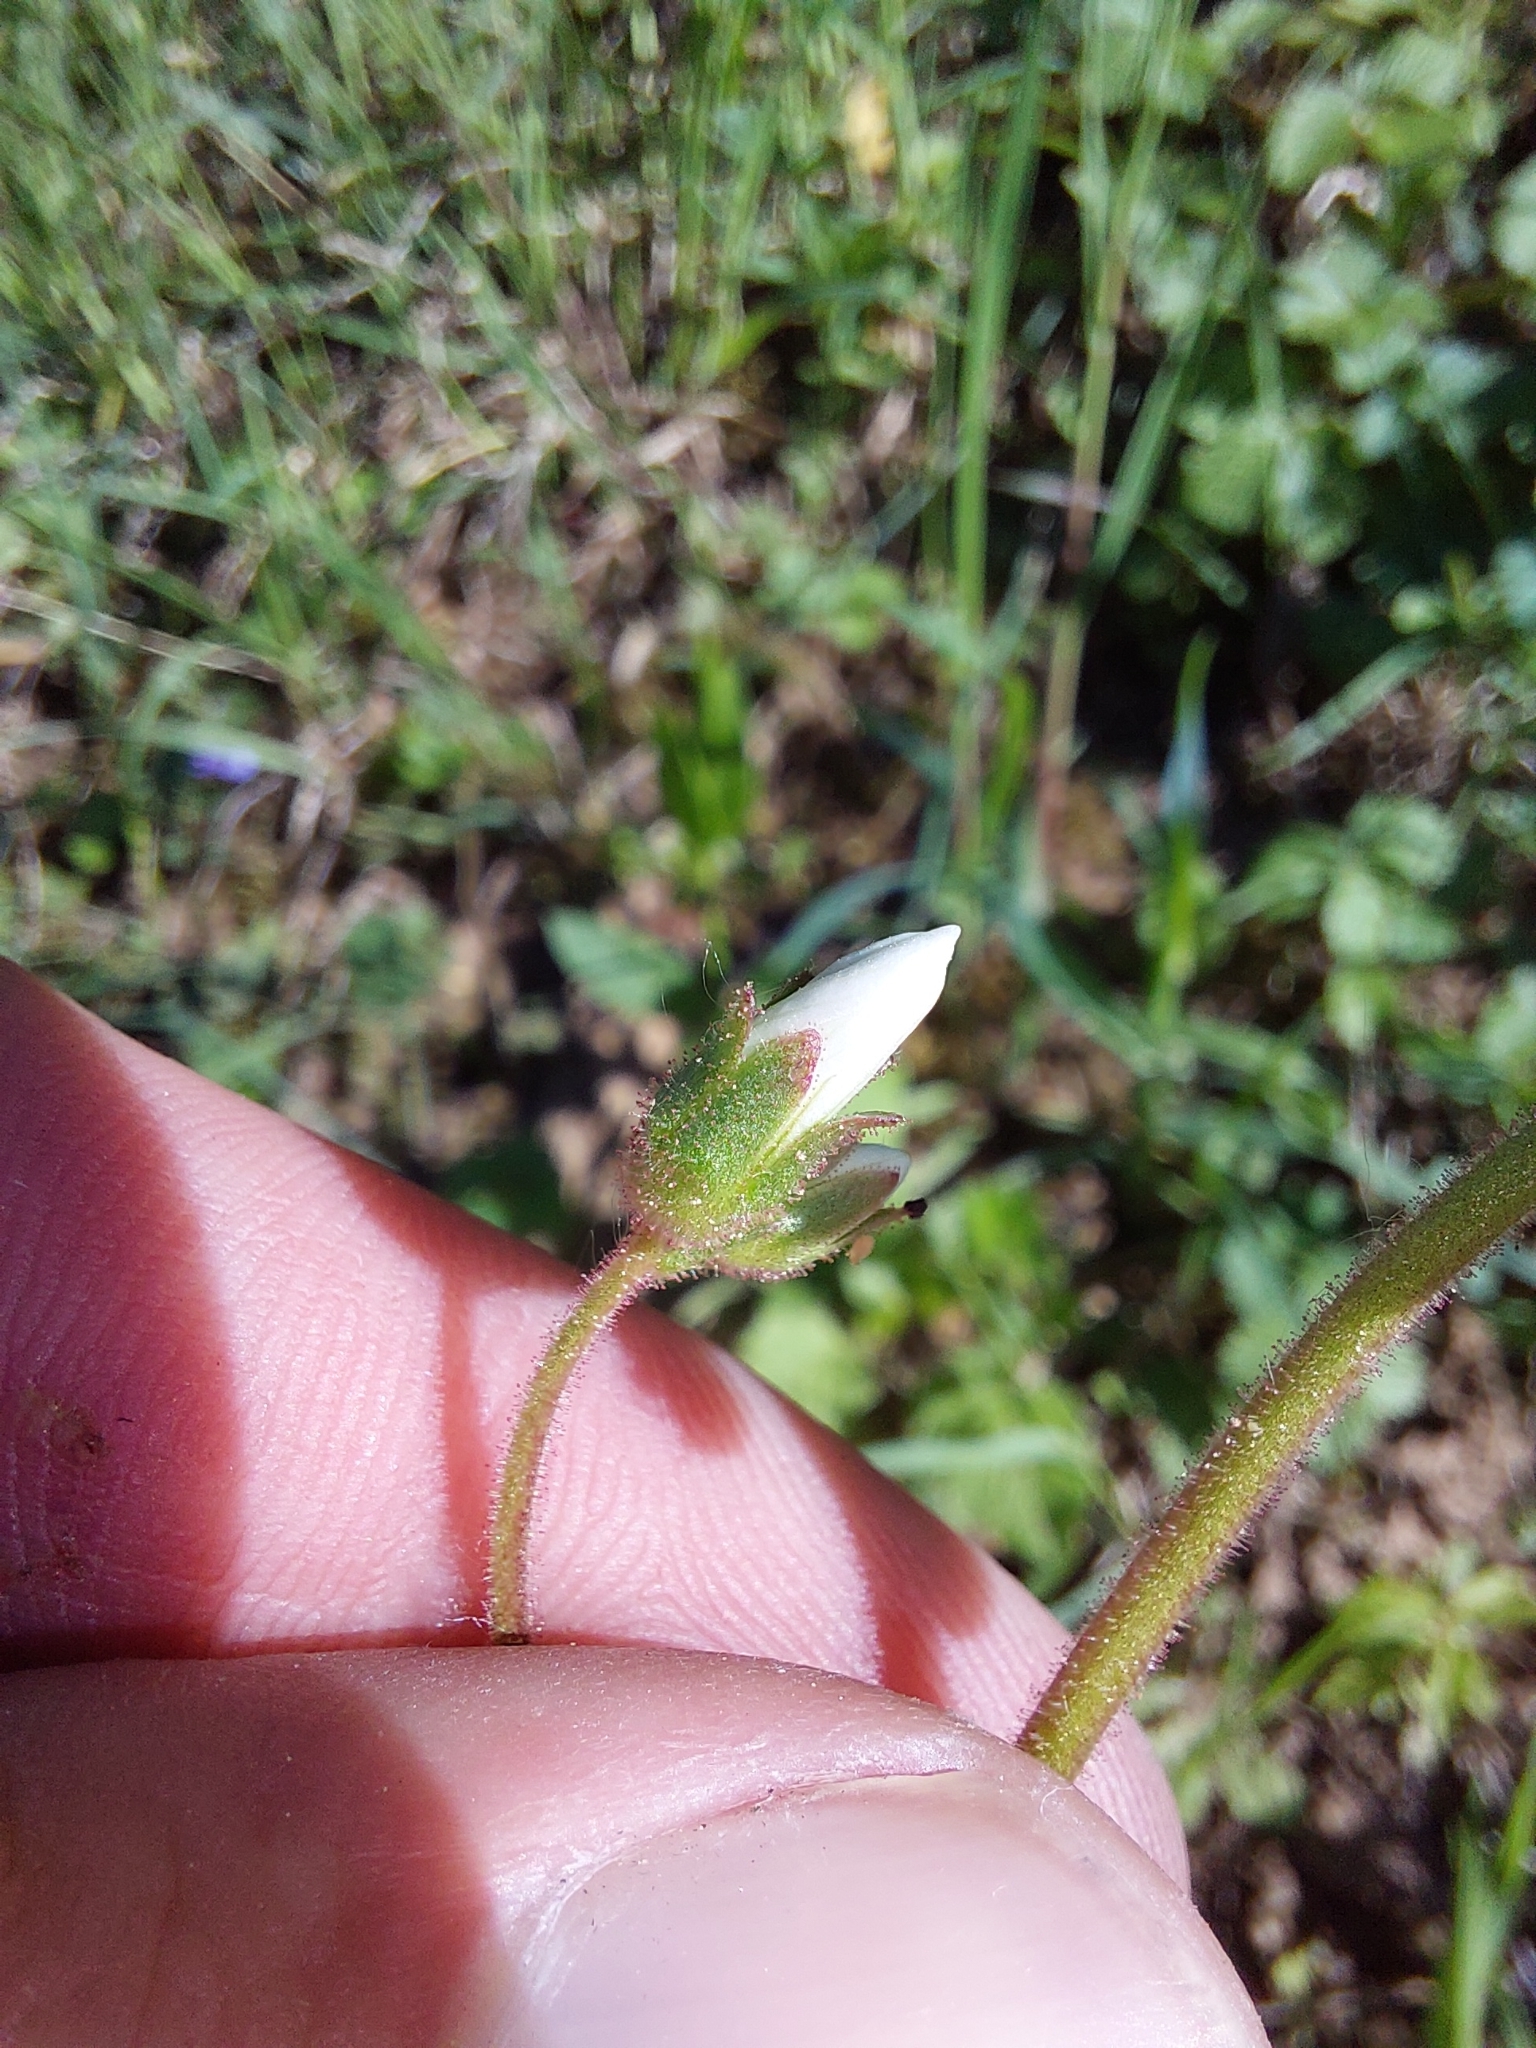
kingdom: Plantae
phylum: Tracheophyta
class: Magnoliopsida
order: Saxifragales
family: Saxifragaceae
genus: Saxifraga
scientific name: Saxifraga granulata
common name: Meadow saxifrage
